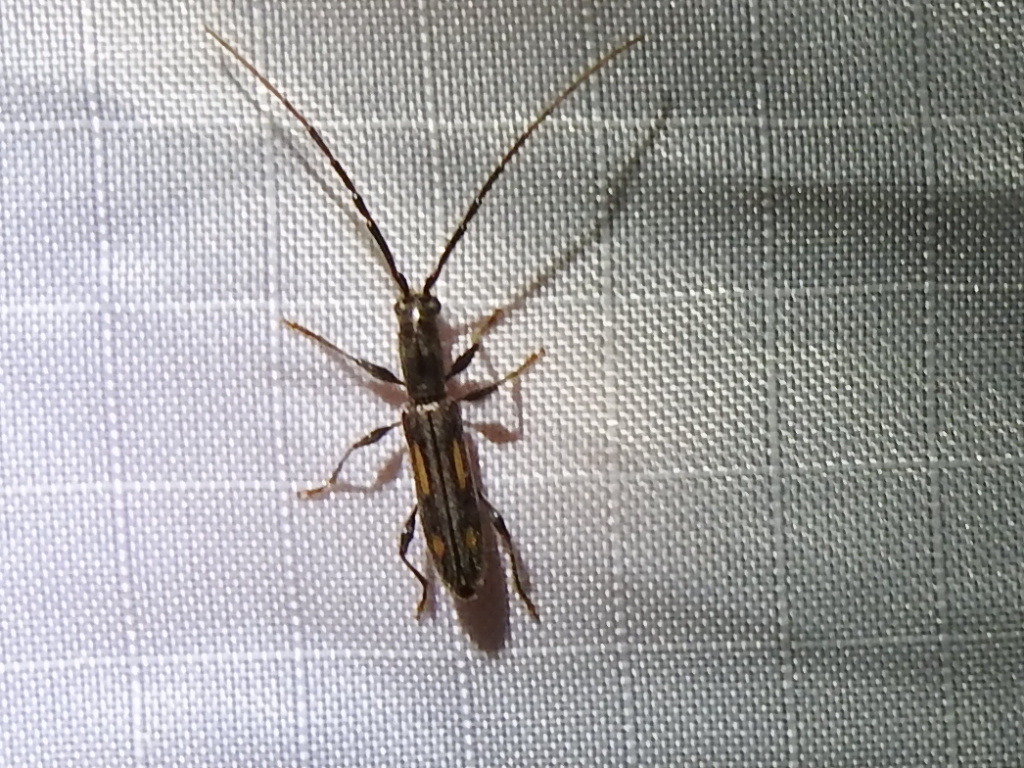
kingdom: Animalia
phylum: Arthropoda
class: Insecta
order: Coleoptera
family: Cerambycidae
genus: Neocompsa
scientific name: Neocompsa mexicana
